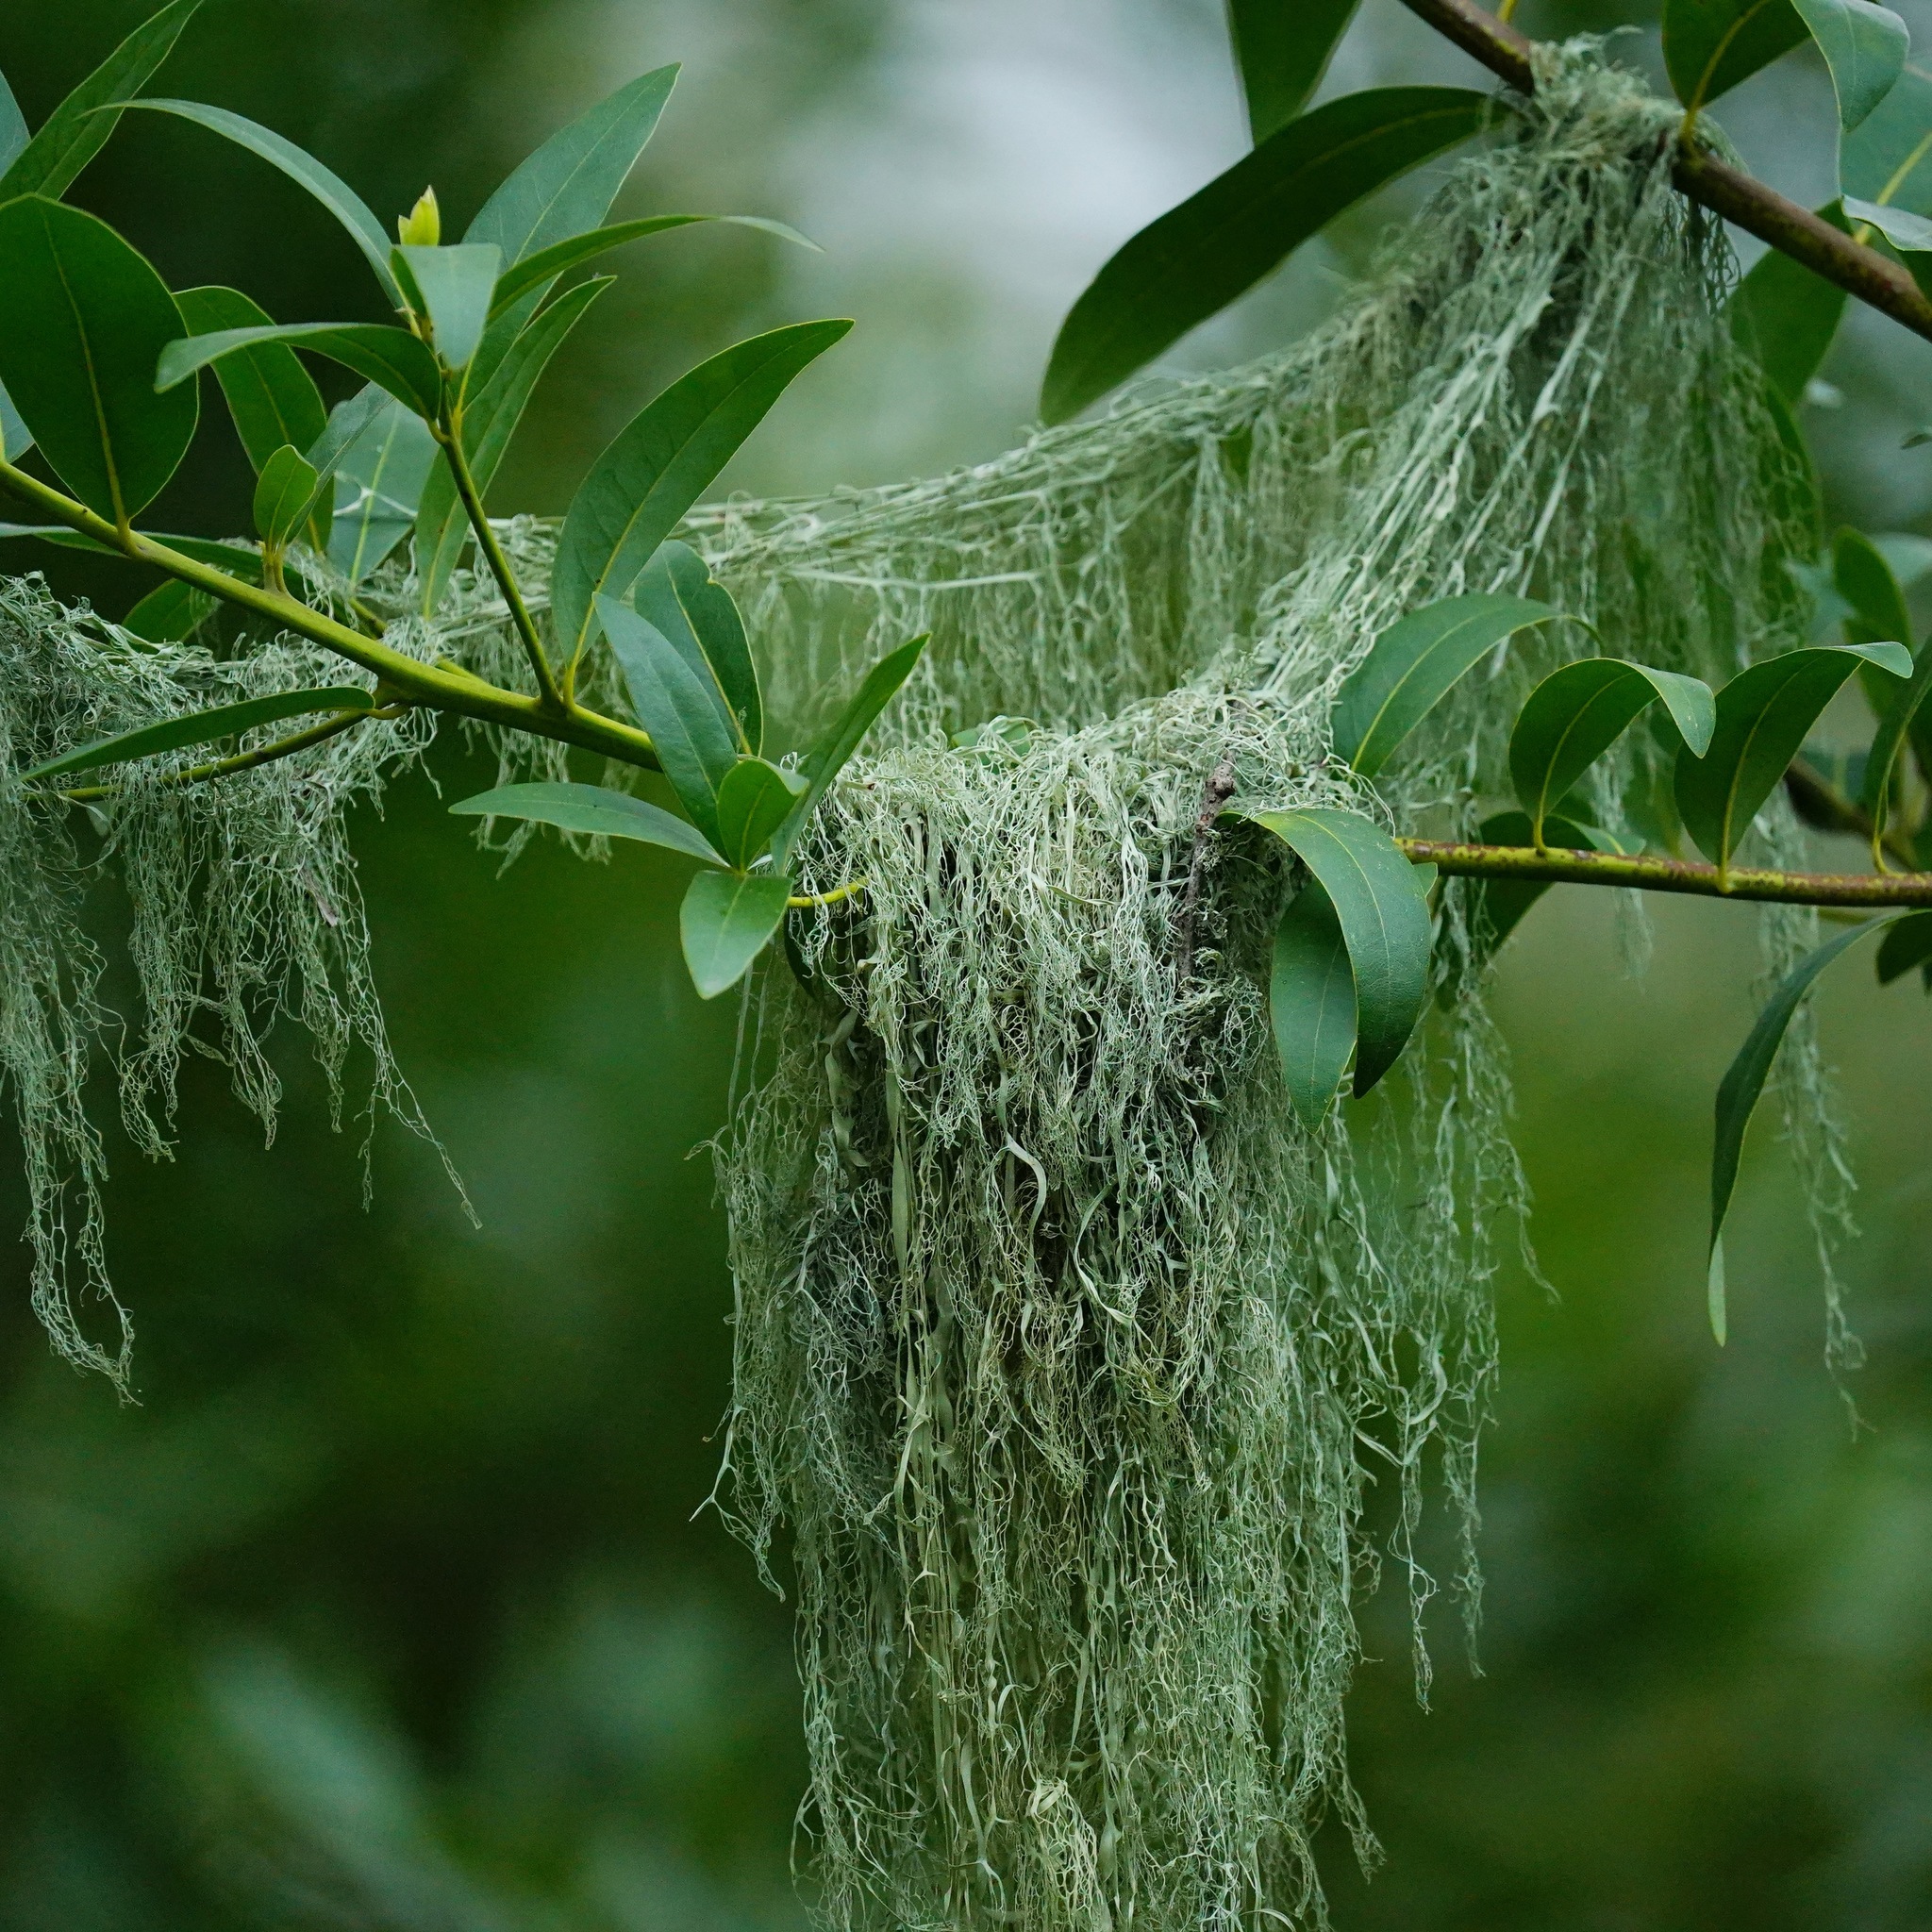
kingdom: Fungi
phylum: Ascomycota
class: Lecanoromycetes
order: Lecanorales
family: Ramalinaceae
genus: Ramalina
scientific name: Ramalina menziesii
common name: Lace lichen
